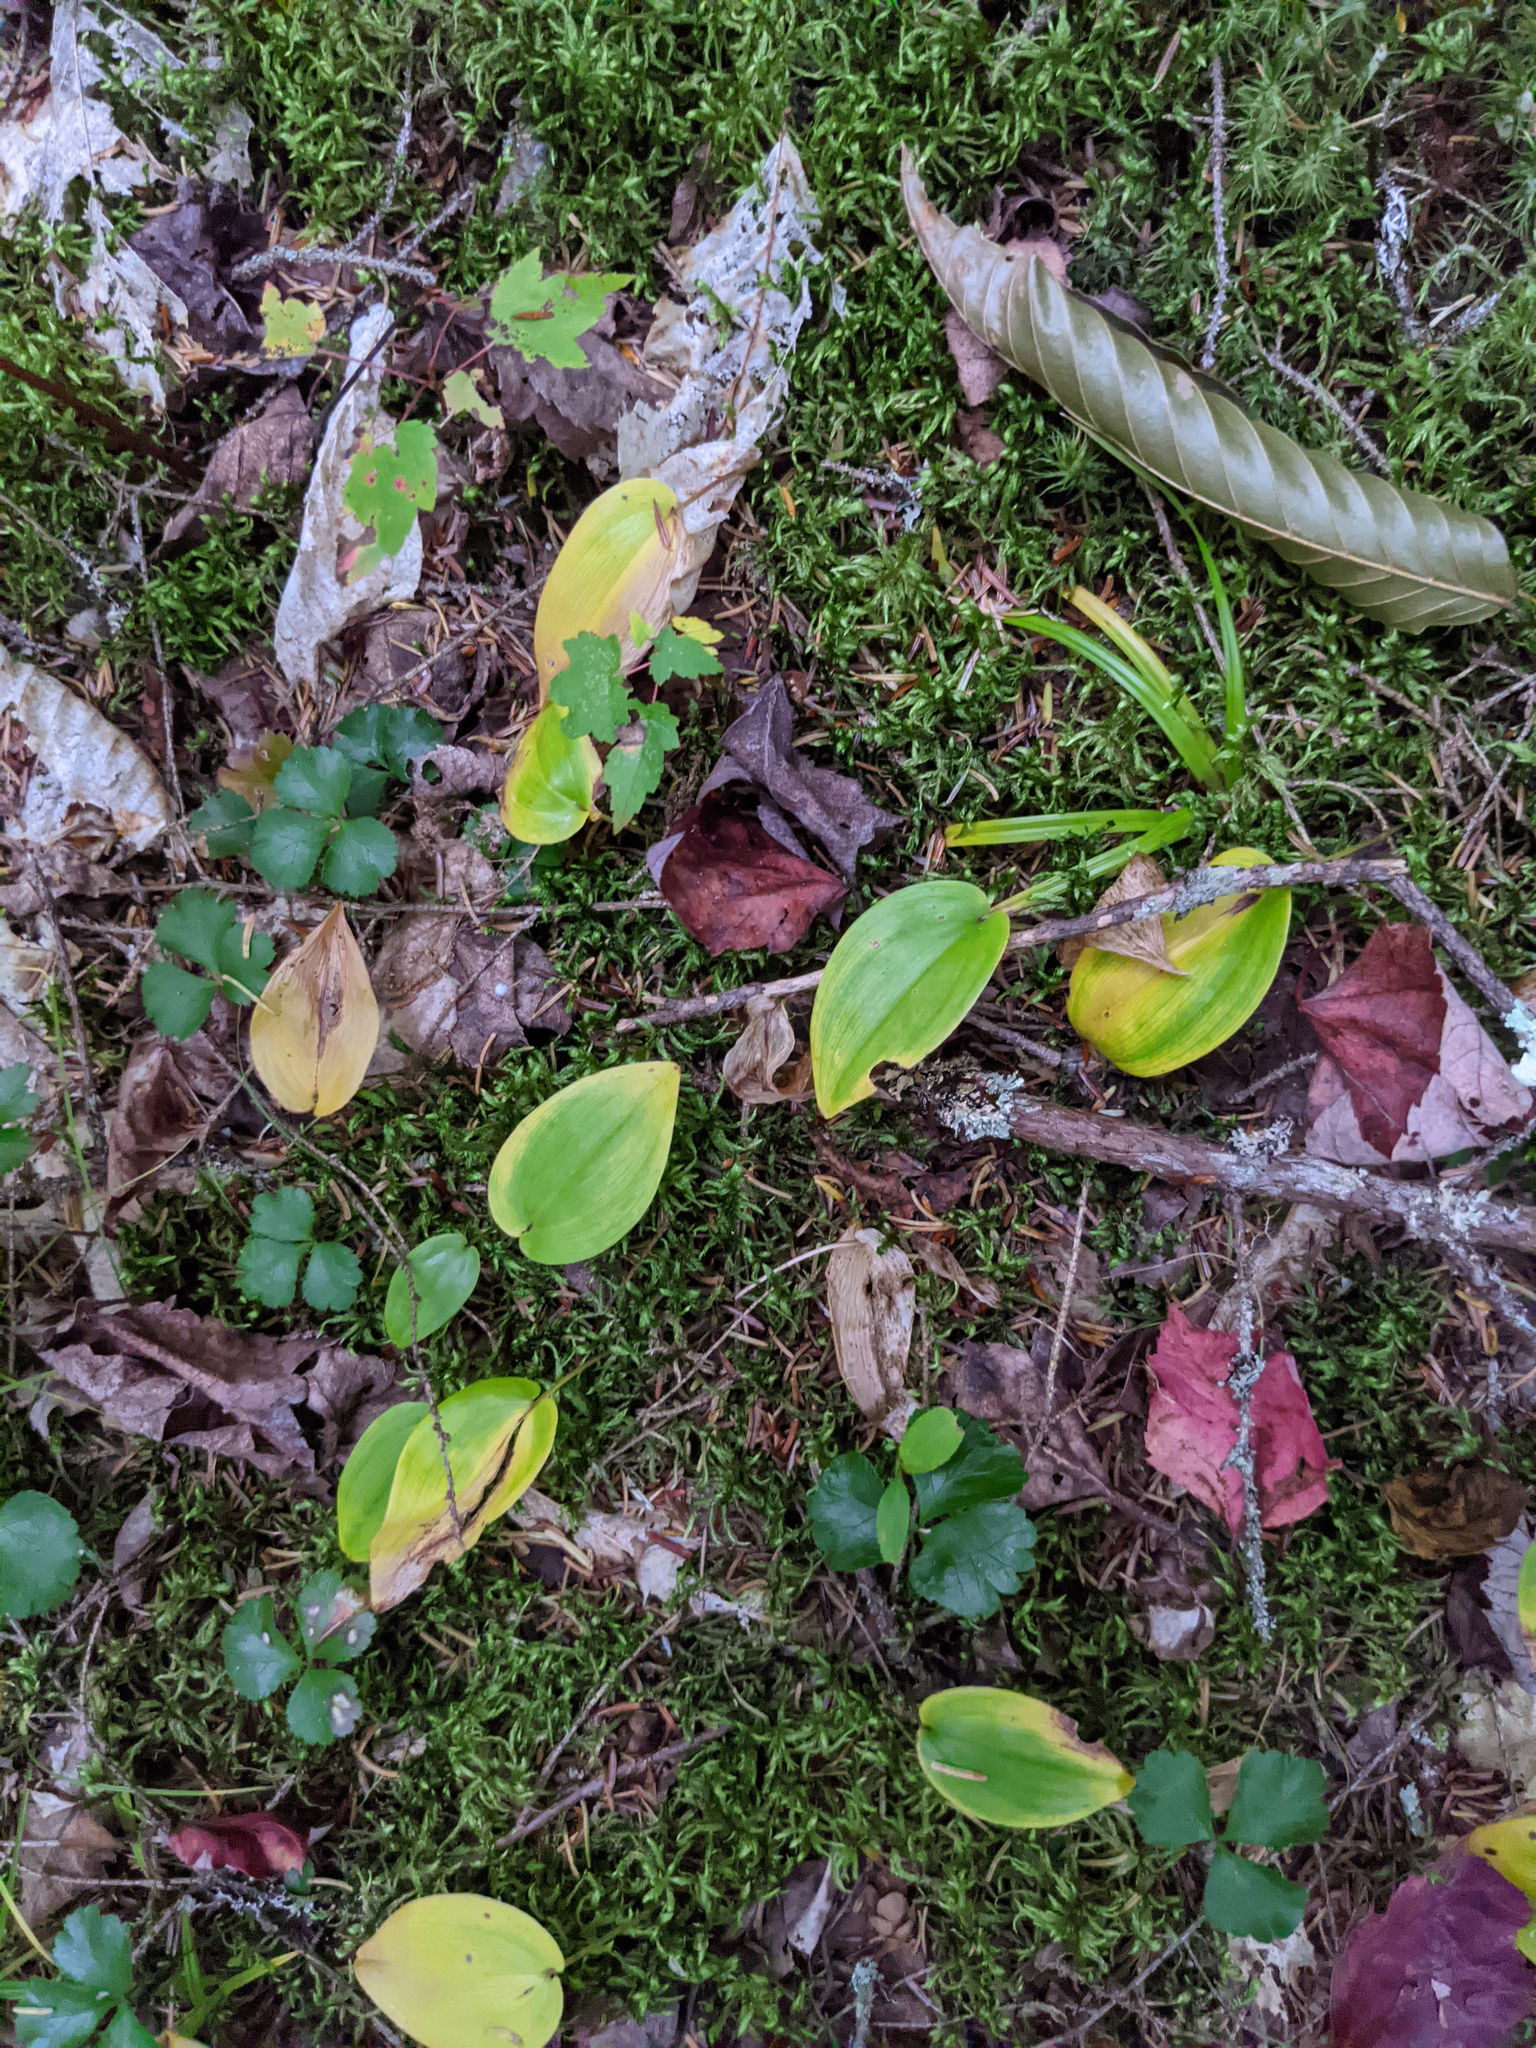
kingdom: Plantae
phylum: Tracheophyta
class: Liliopsida
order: Asparagales
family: Asparagaceae
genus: Maianthemum
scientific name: Maianthemum canadense
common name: False lily-of-the-valley
